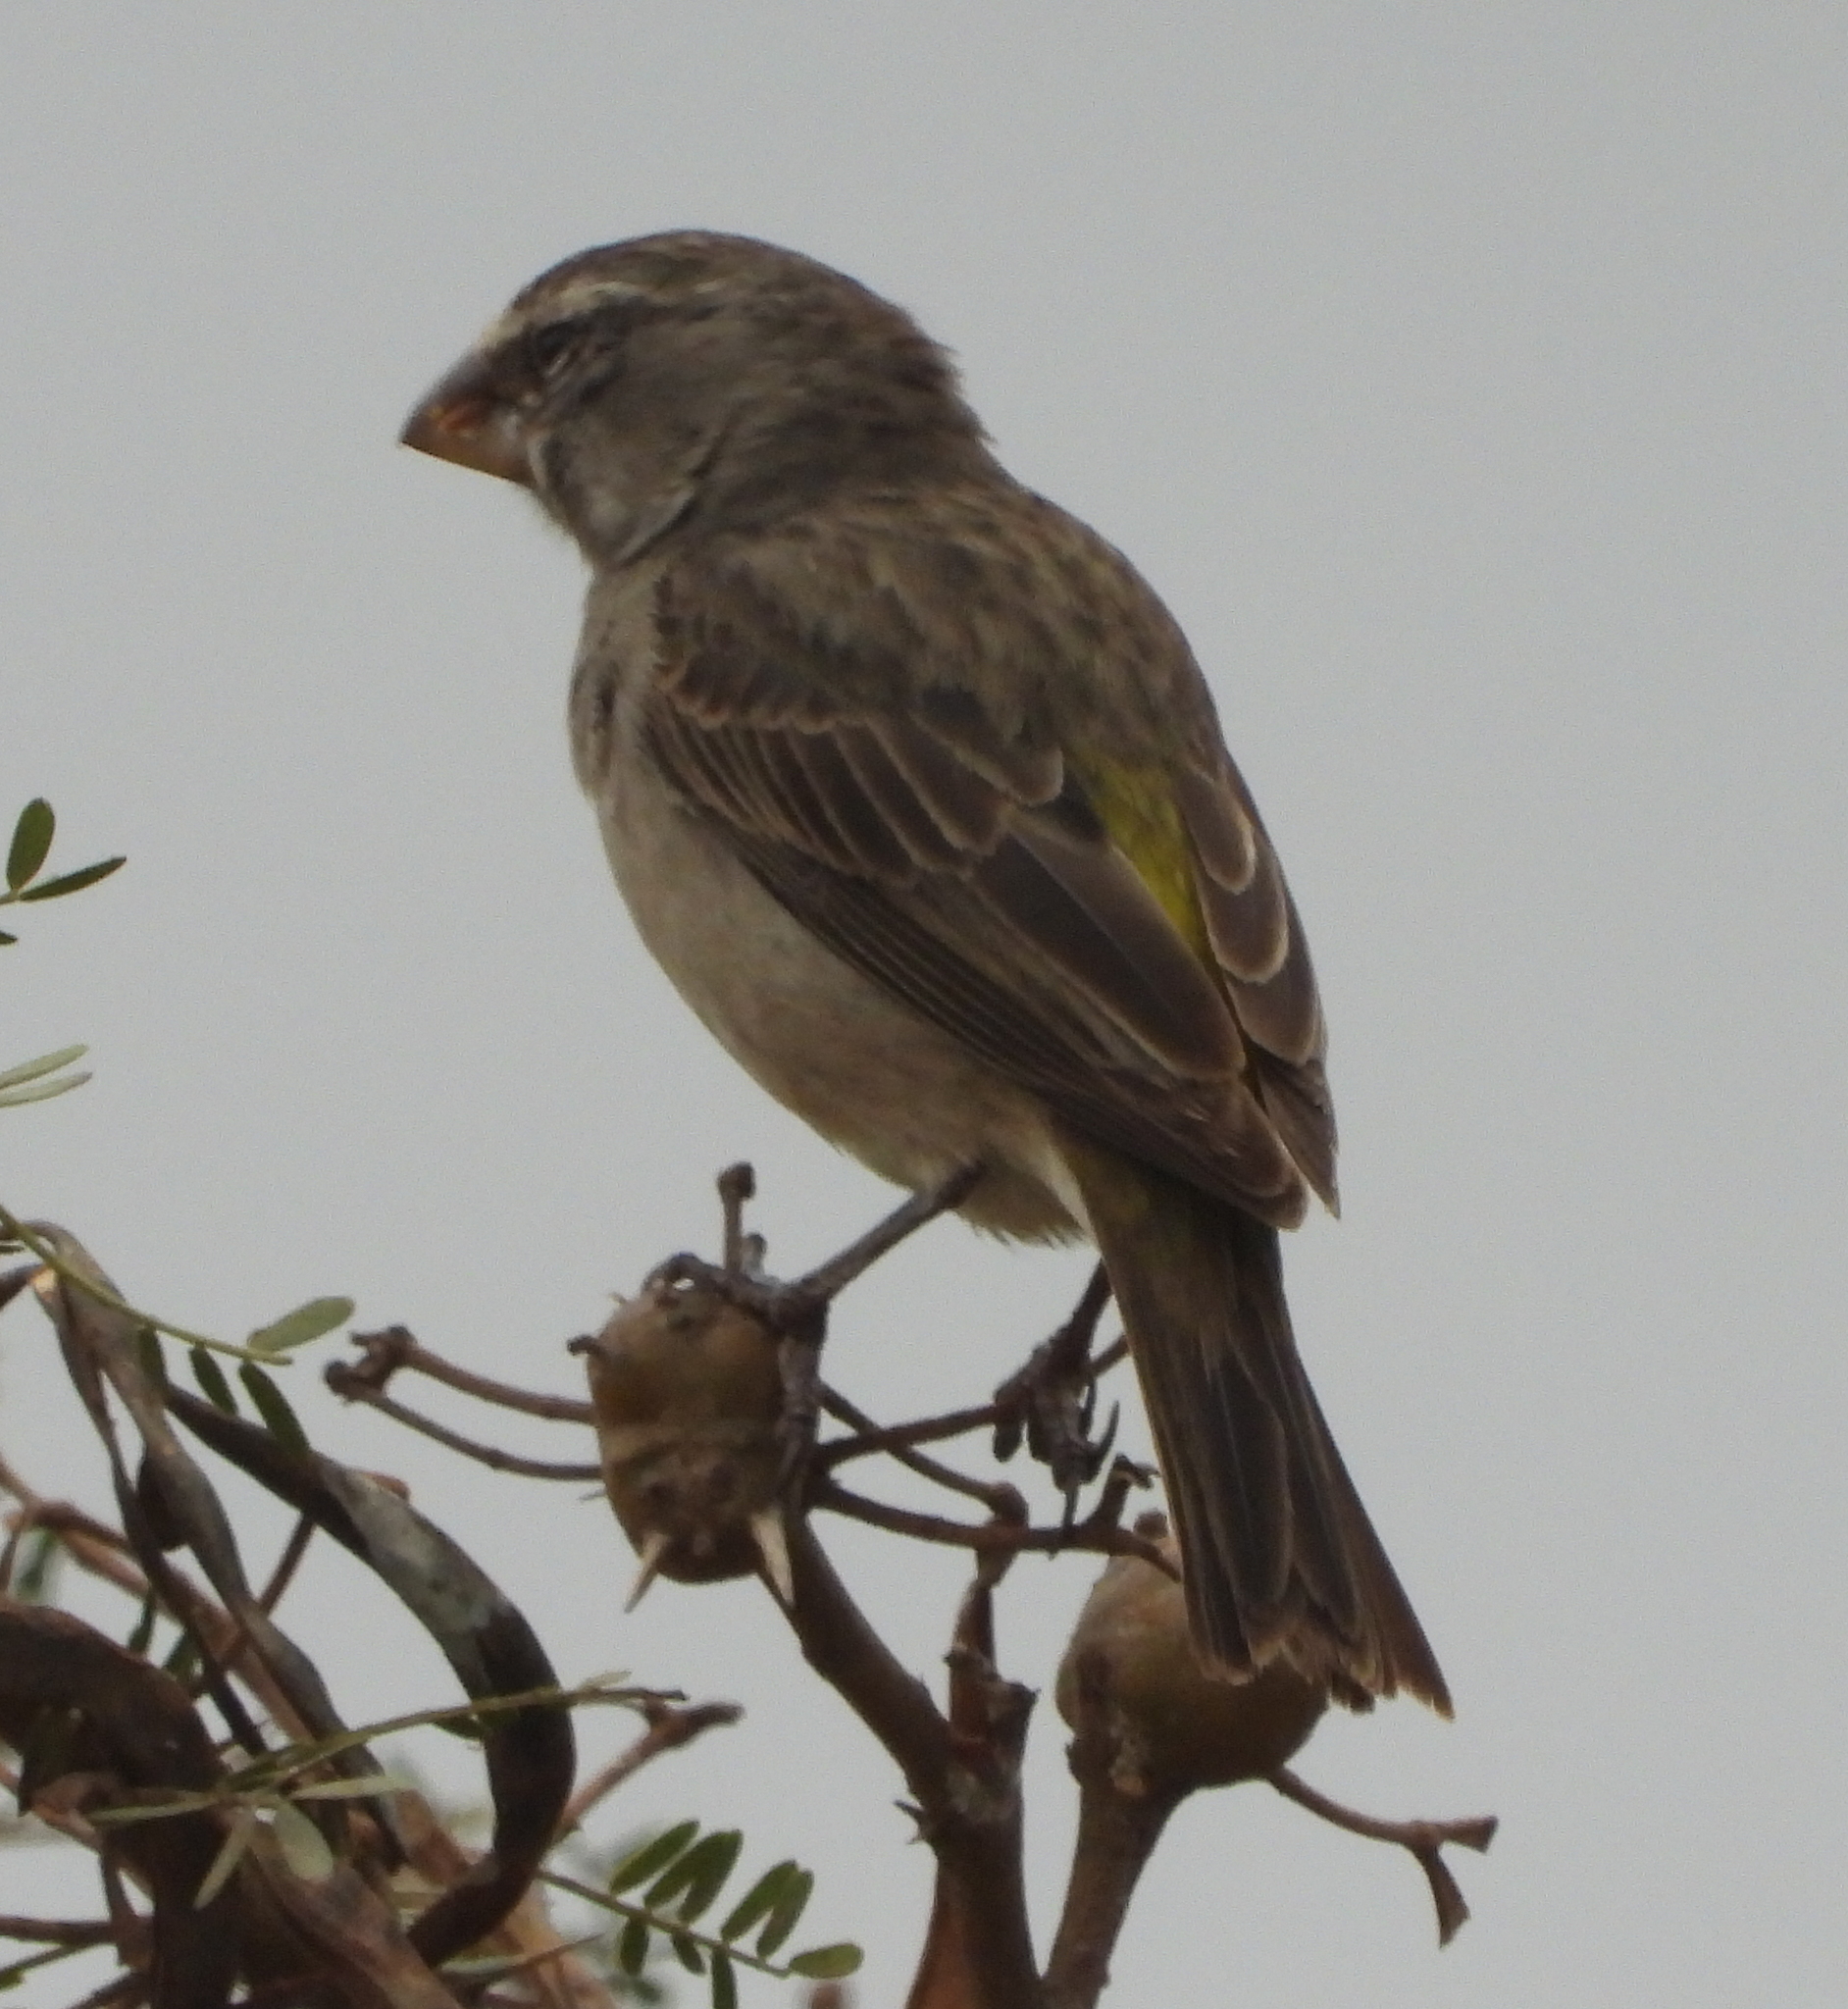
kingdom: Animalia
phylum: Chordata
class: Aves
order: Passeriformes
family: Fringillidae
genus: Crithagra
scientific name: Crithagra albogularis
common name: White-throated canary
